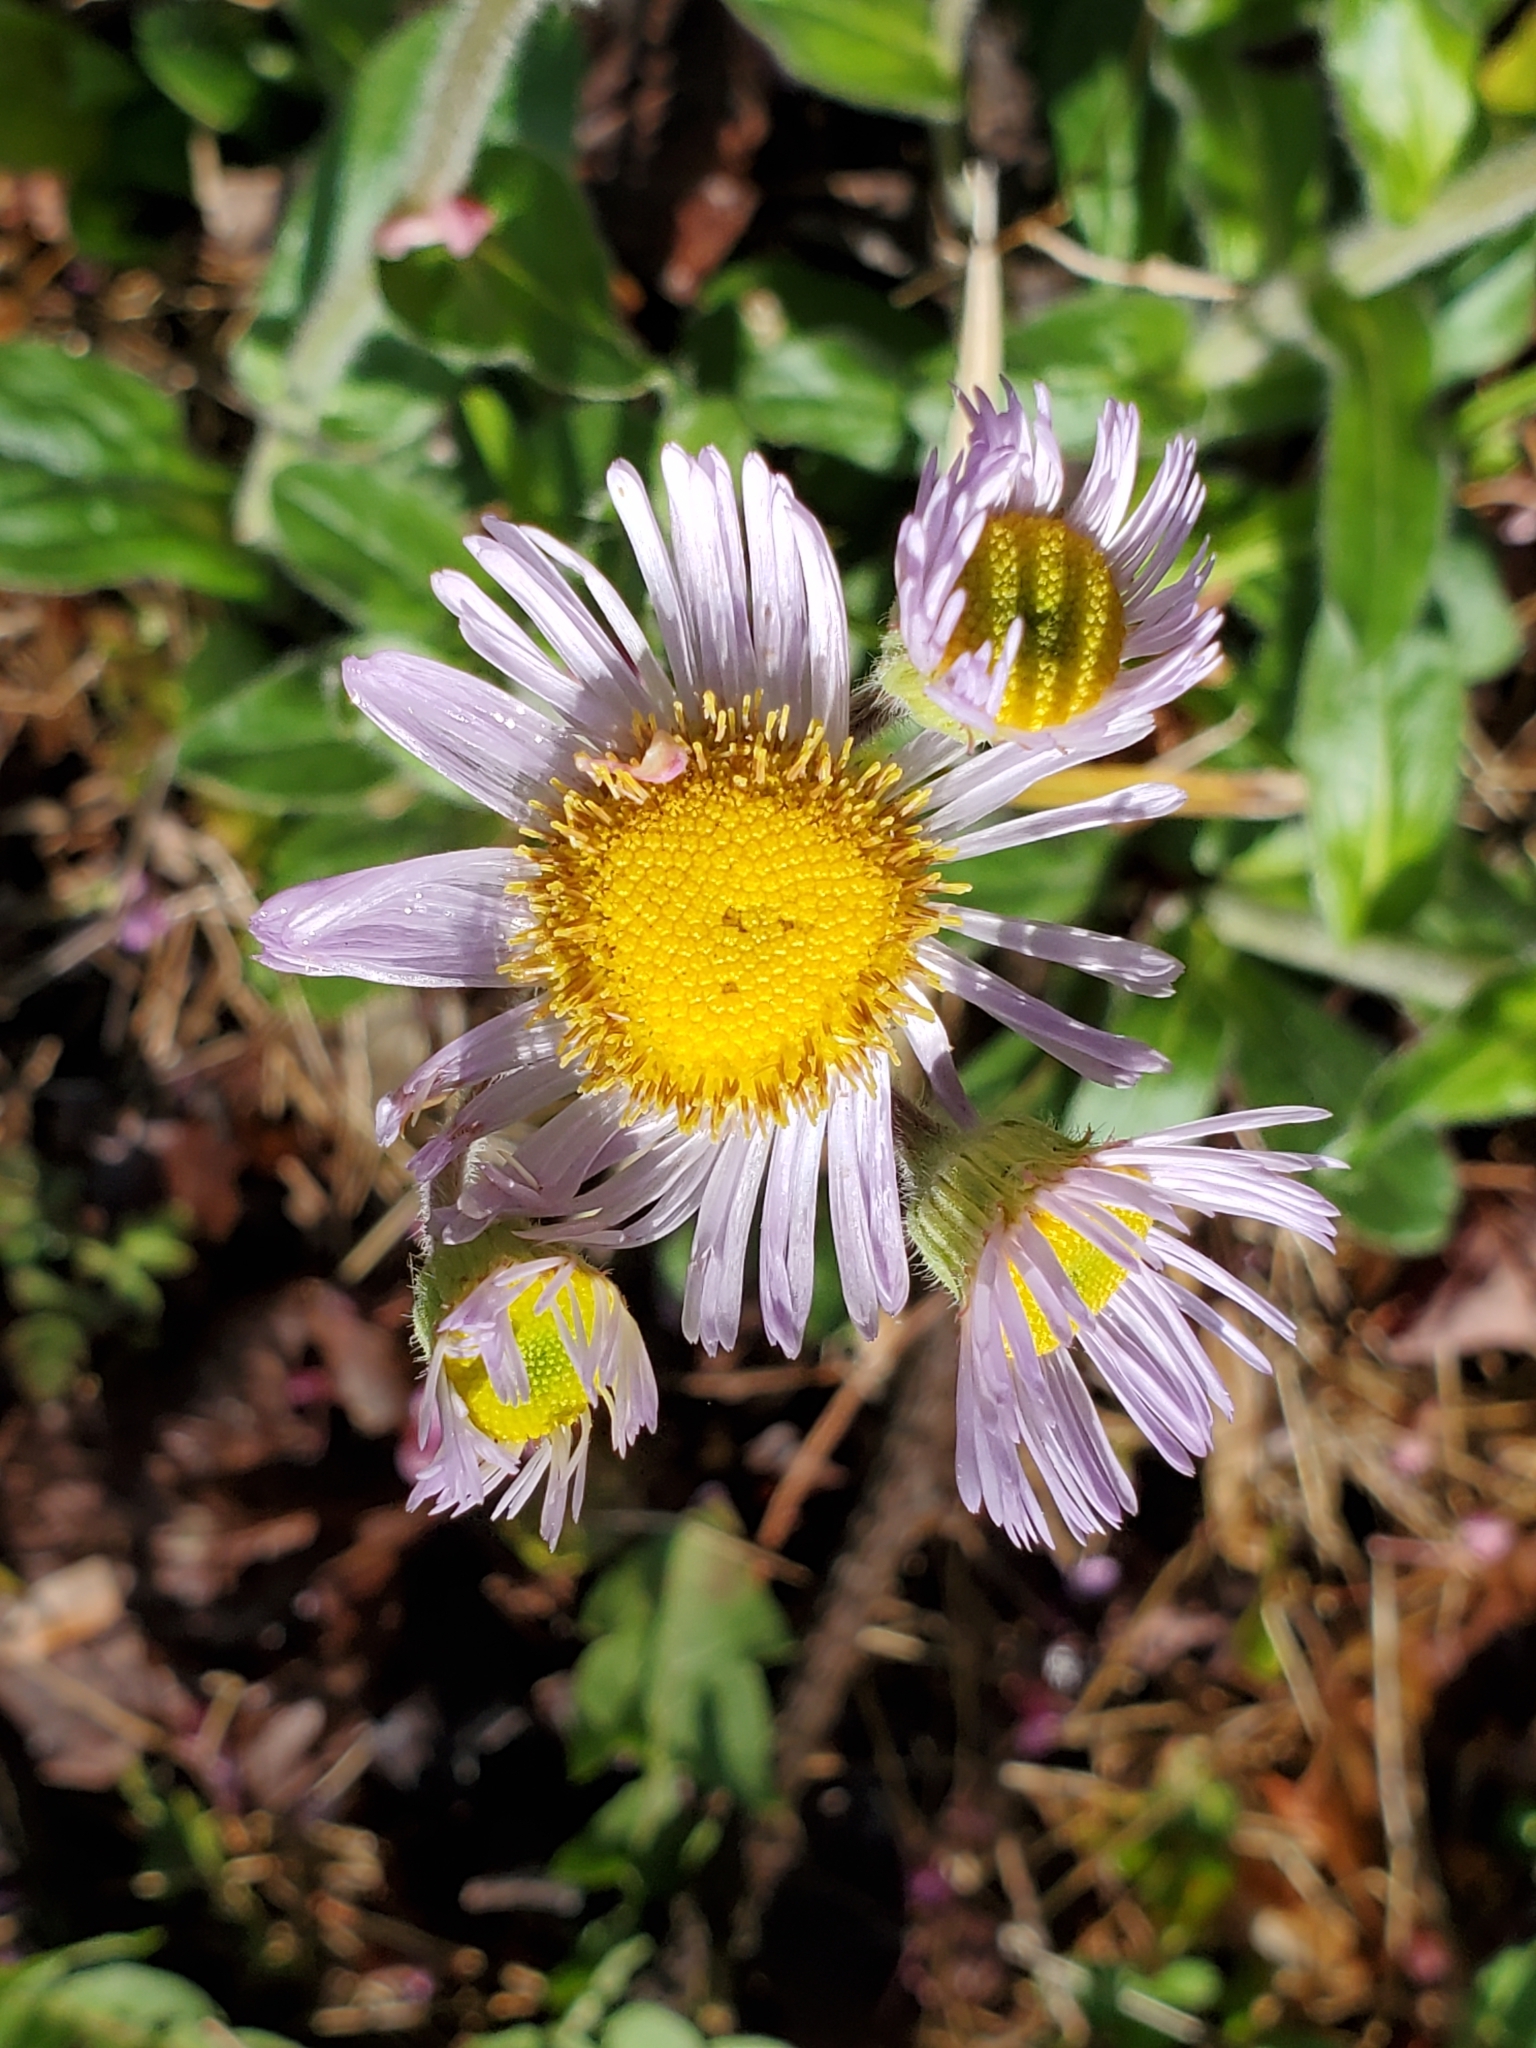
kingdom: Plantae
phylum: Tracheophyta
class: Magnoliopsida
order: Asterales
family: Asteraceae
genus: Erigeron
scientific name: Erigeron pulchellus
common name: Hairy fleabane
